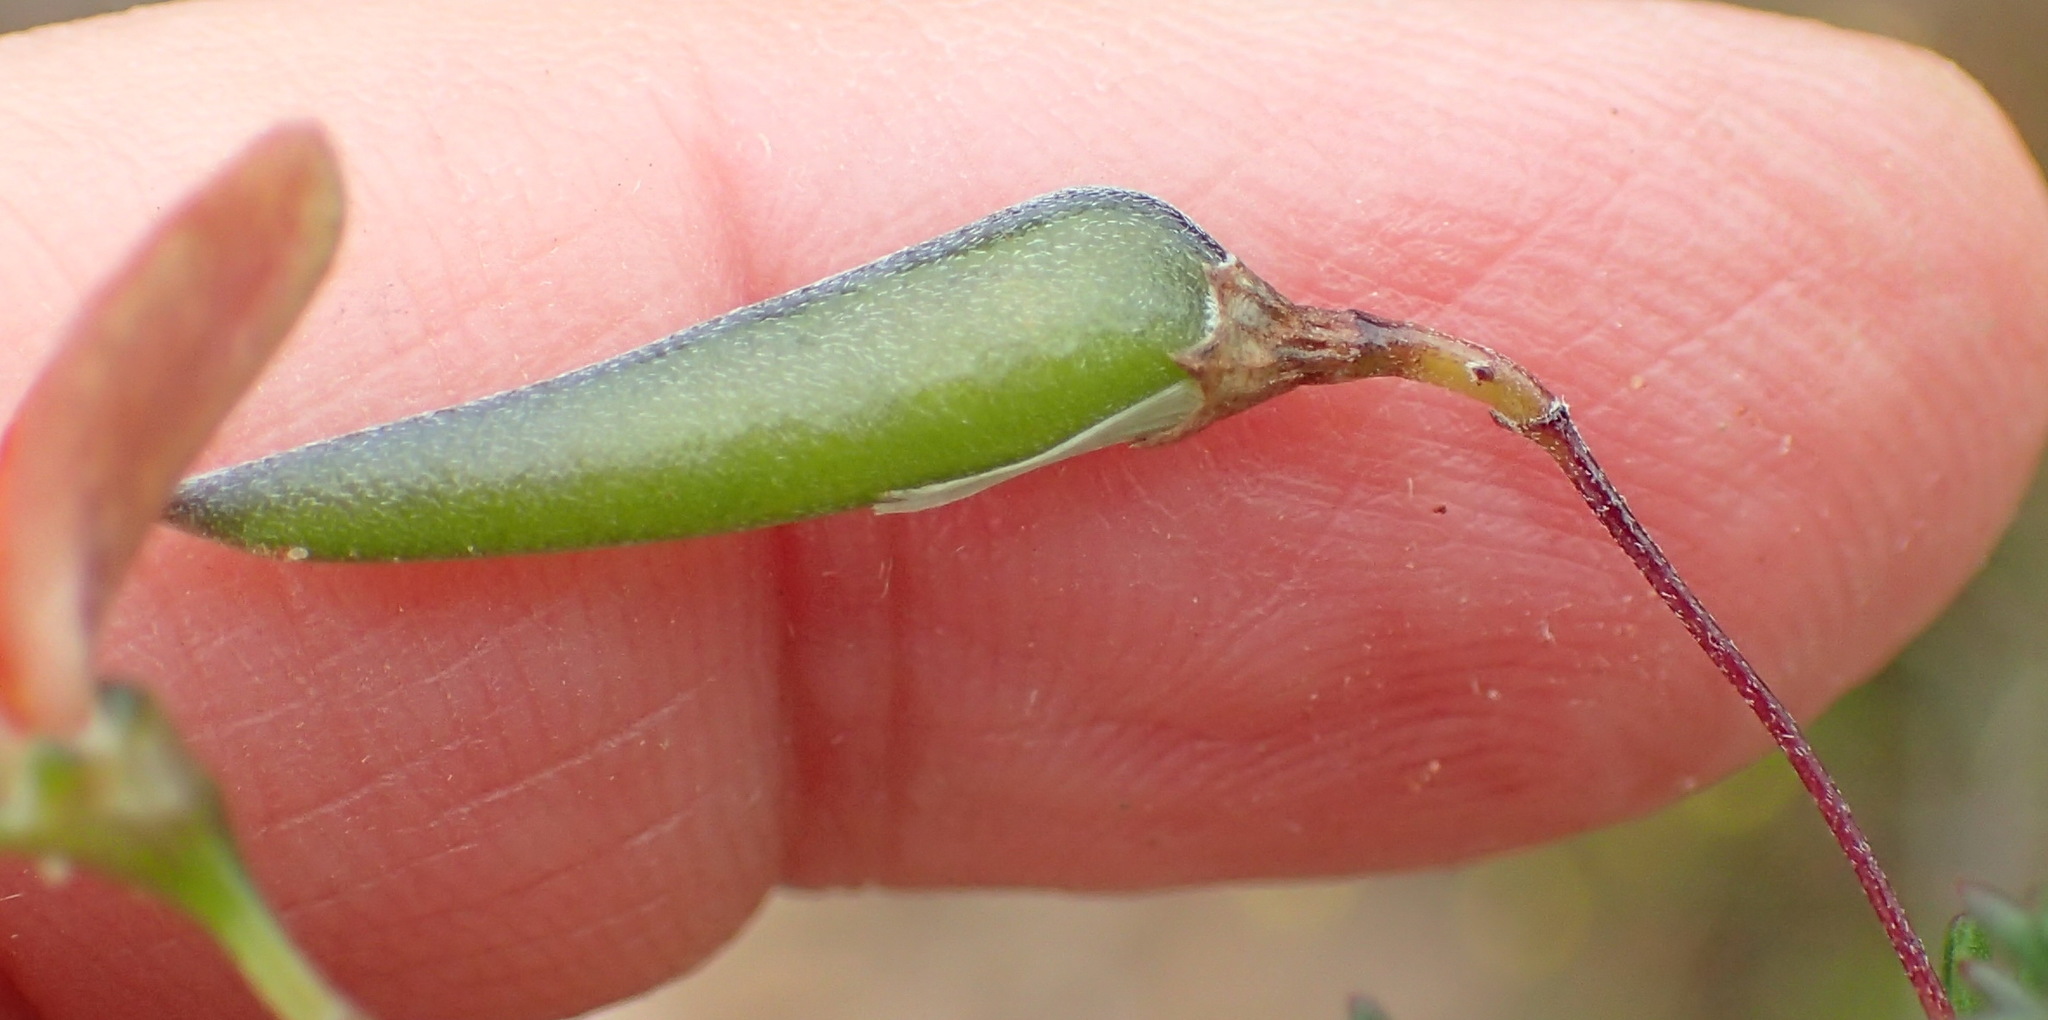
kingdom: Plantae
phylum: Tracheophyta
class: Magnoliopsida
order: Fabales
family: Fabaceae
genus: Aspalathus
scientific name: Aspalathus biflora
